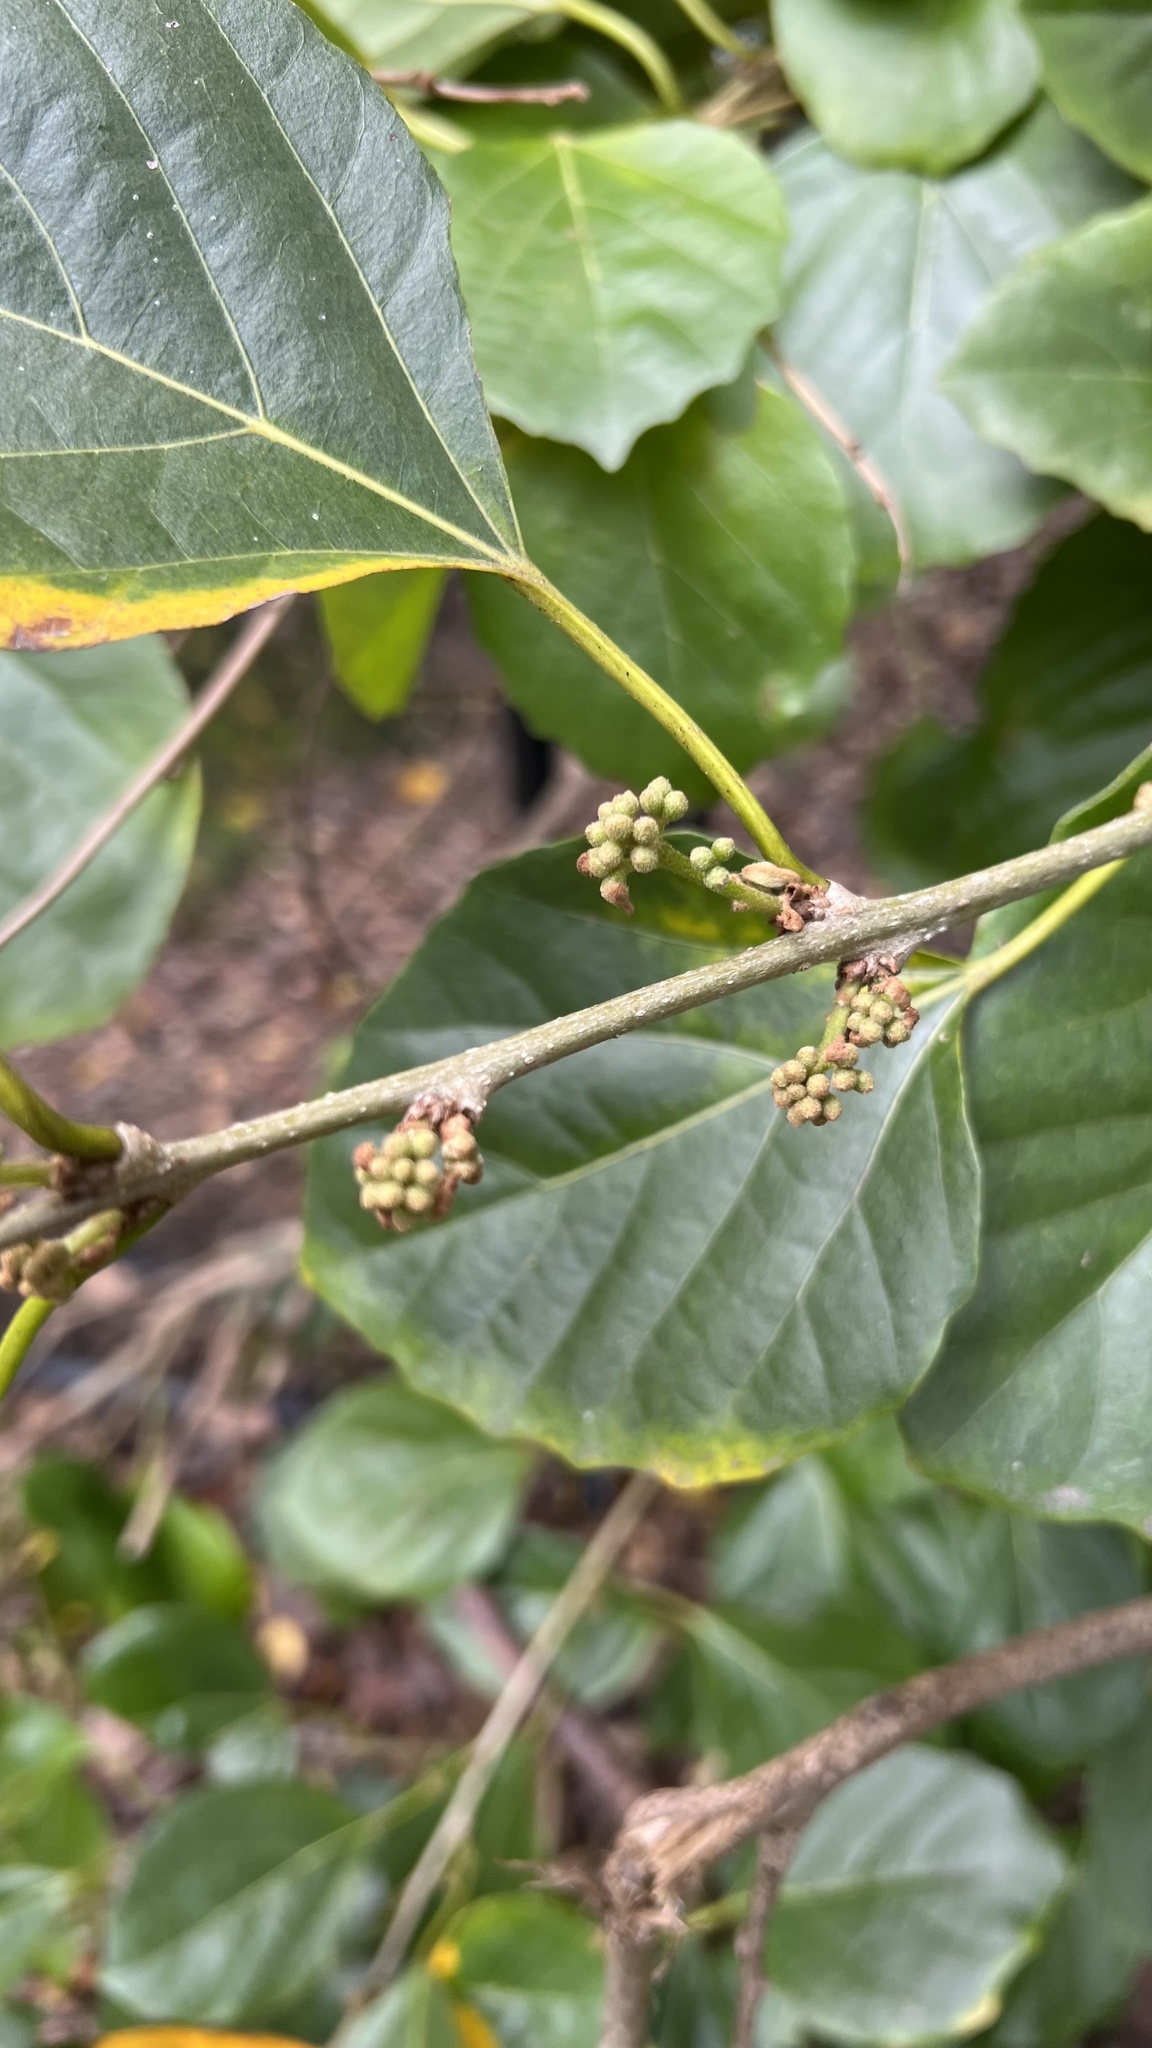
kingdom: Plantae
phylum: Tracheophyta
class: Magnoliopsida
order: Boraginales
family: Cordiaceae
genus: Cordia
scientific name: Cordia dichotoma
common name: Fragrant manjack
